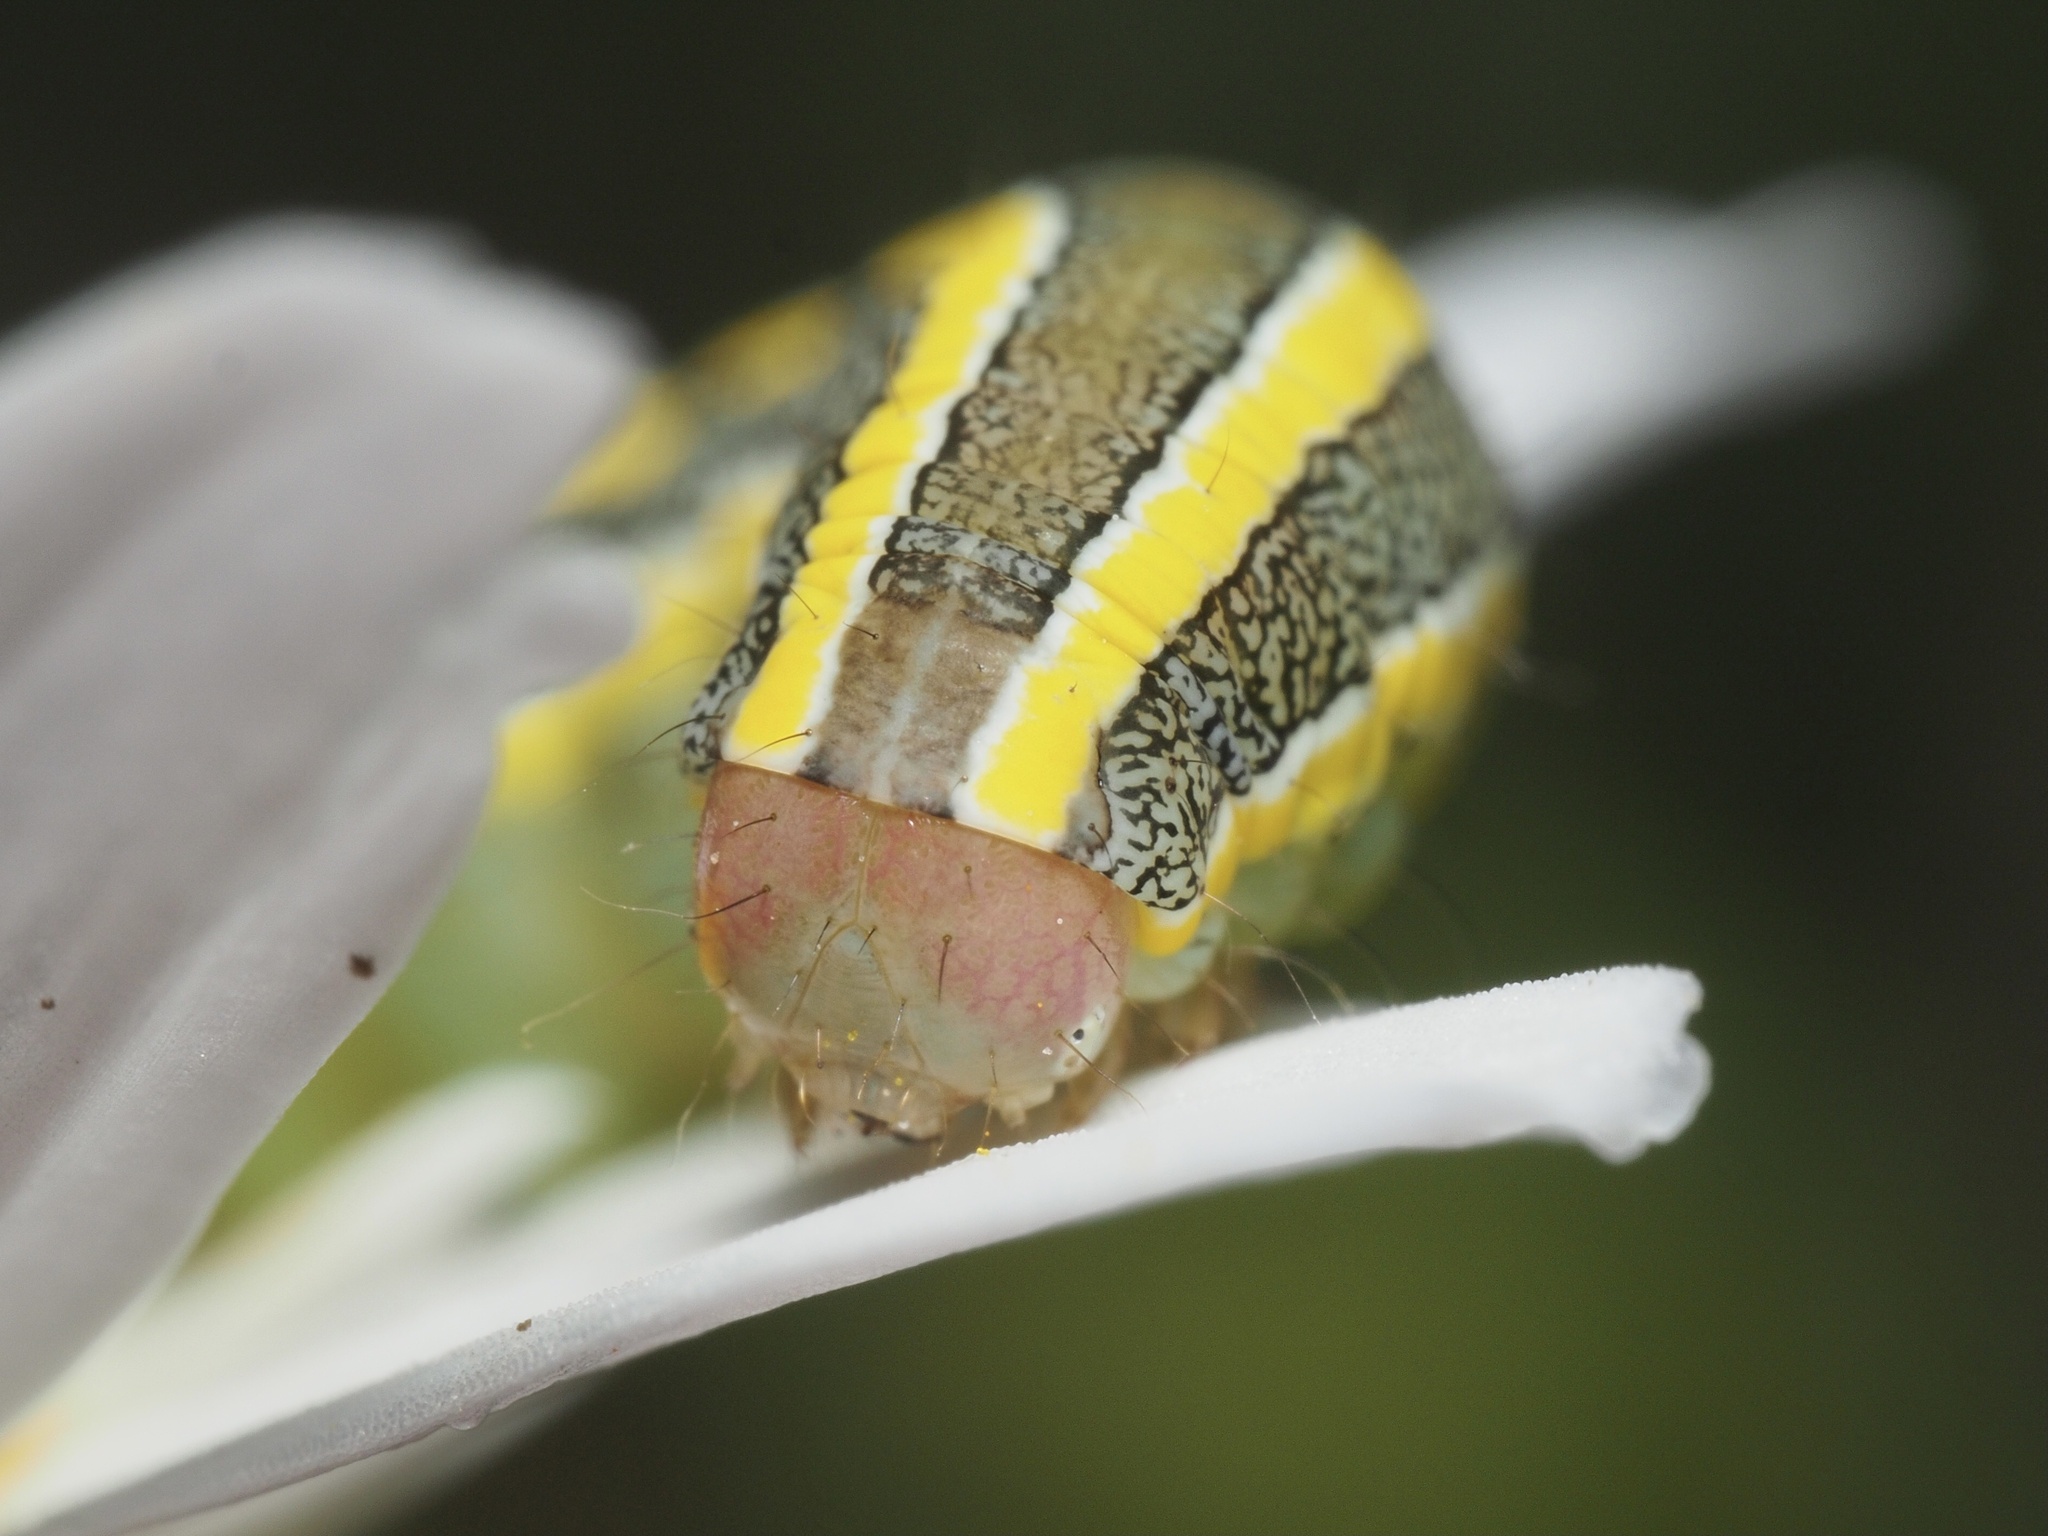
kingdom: Animalia
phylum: Arthropoda
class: Insecta
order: Lepidoptera
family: Noctuidae
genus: Ceramica
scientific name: Ceramica pisi
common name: Broom moth
